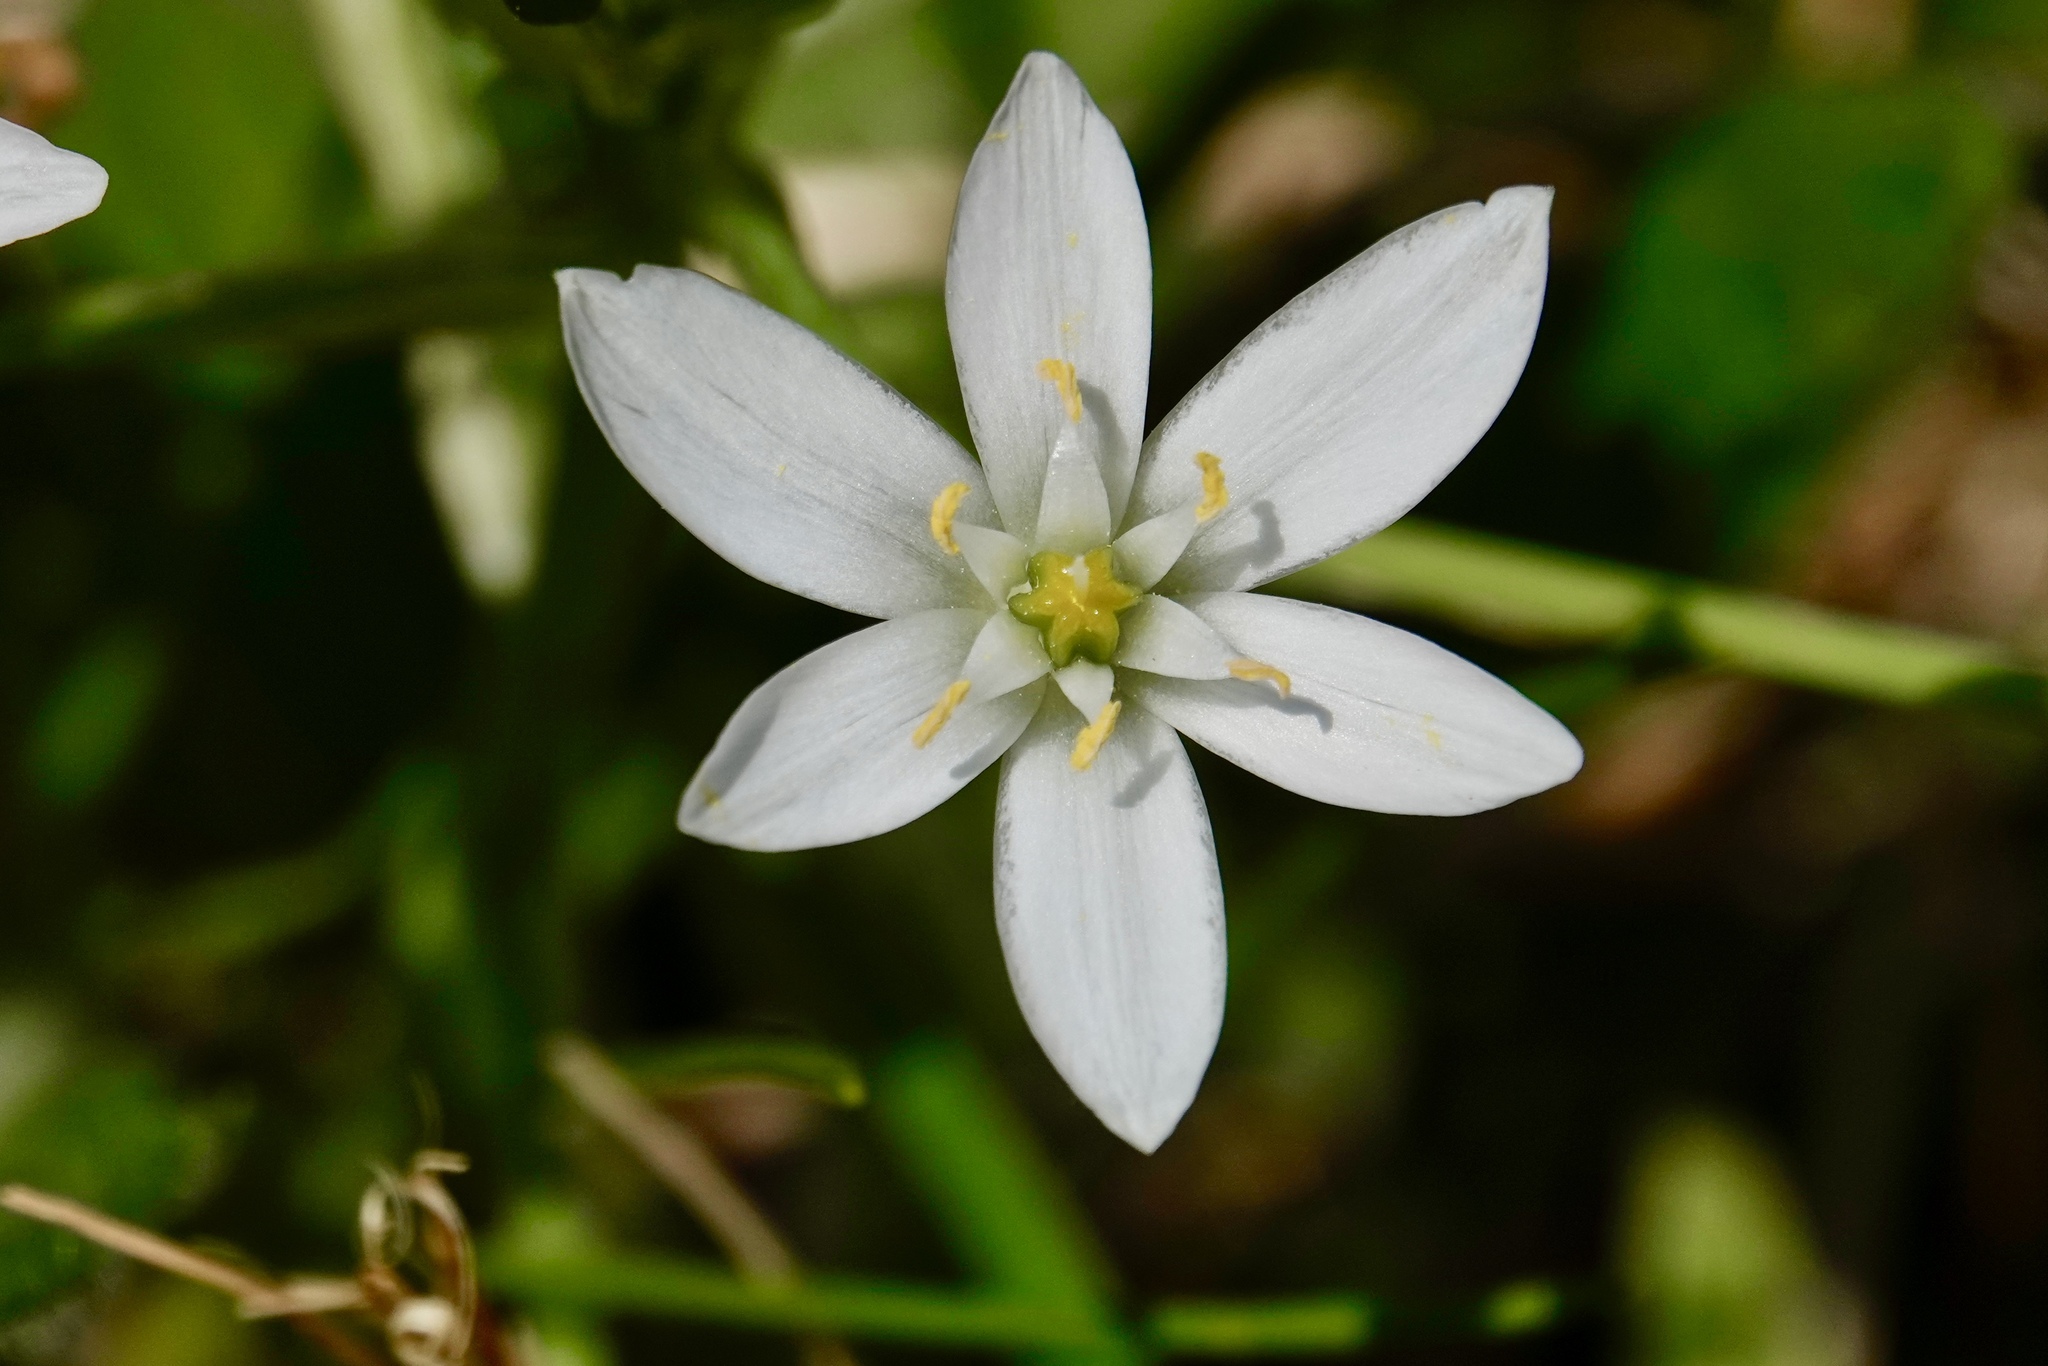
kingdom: Plantae
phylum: Tracheophyta
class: Liliopsida
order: Asparagales
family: Asparagaceae
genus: Ornithogalum
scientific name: Ornithogalum umbellatum
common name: Garden star-of-bethlehem
